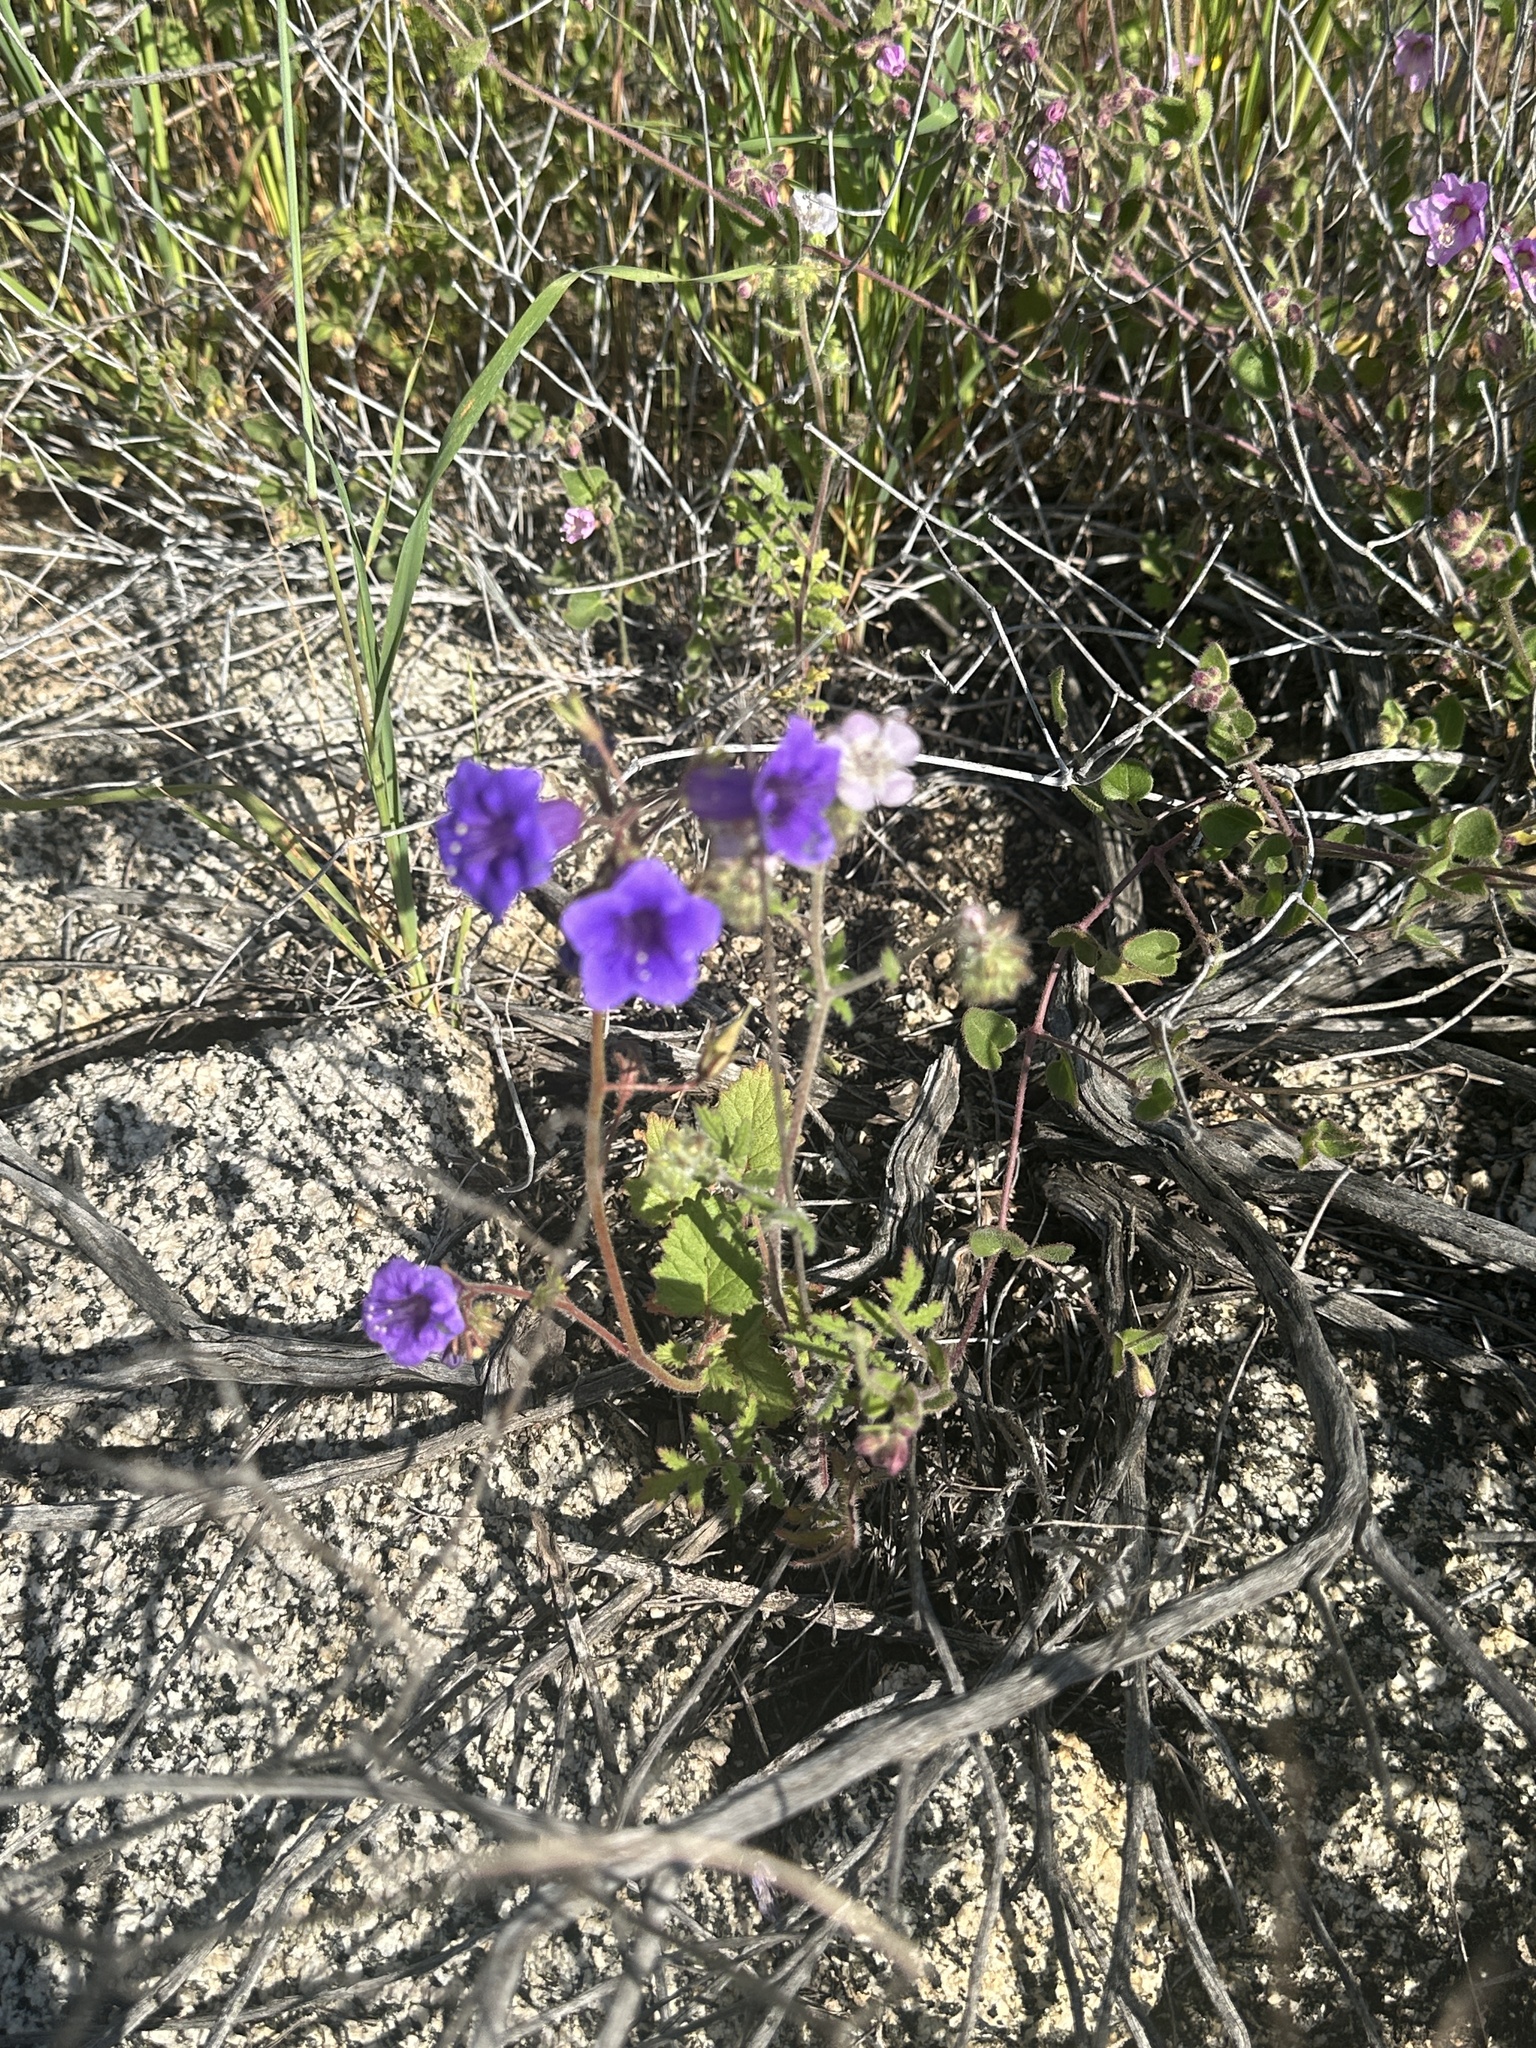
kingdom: Plantae
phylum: Tracheophyta
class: Magnoliopsida
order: Boraginales
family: Hydrophyllaceae
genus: Phacelia
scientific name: Phacelia minor
